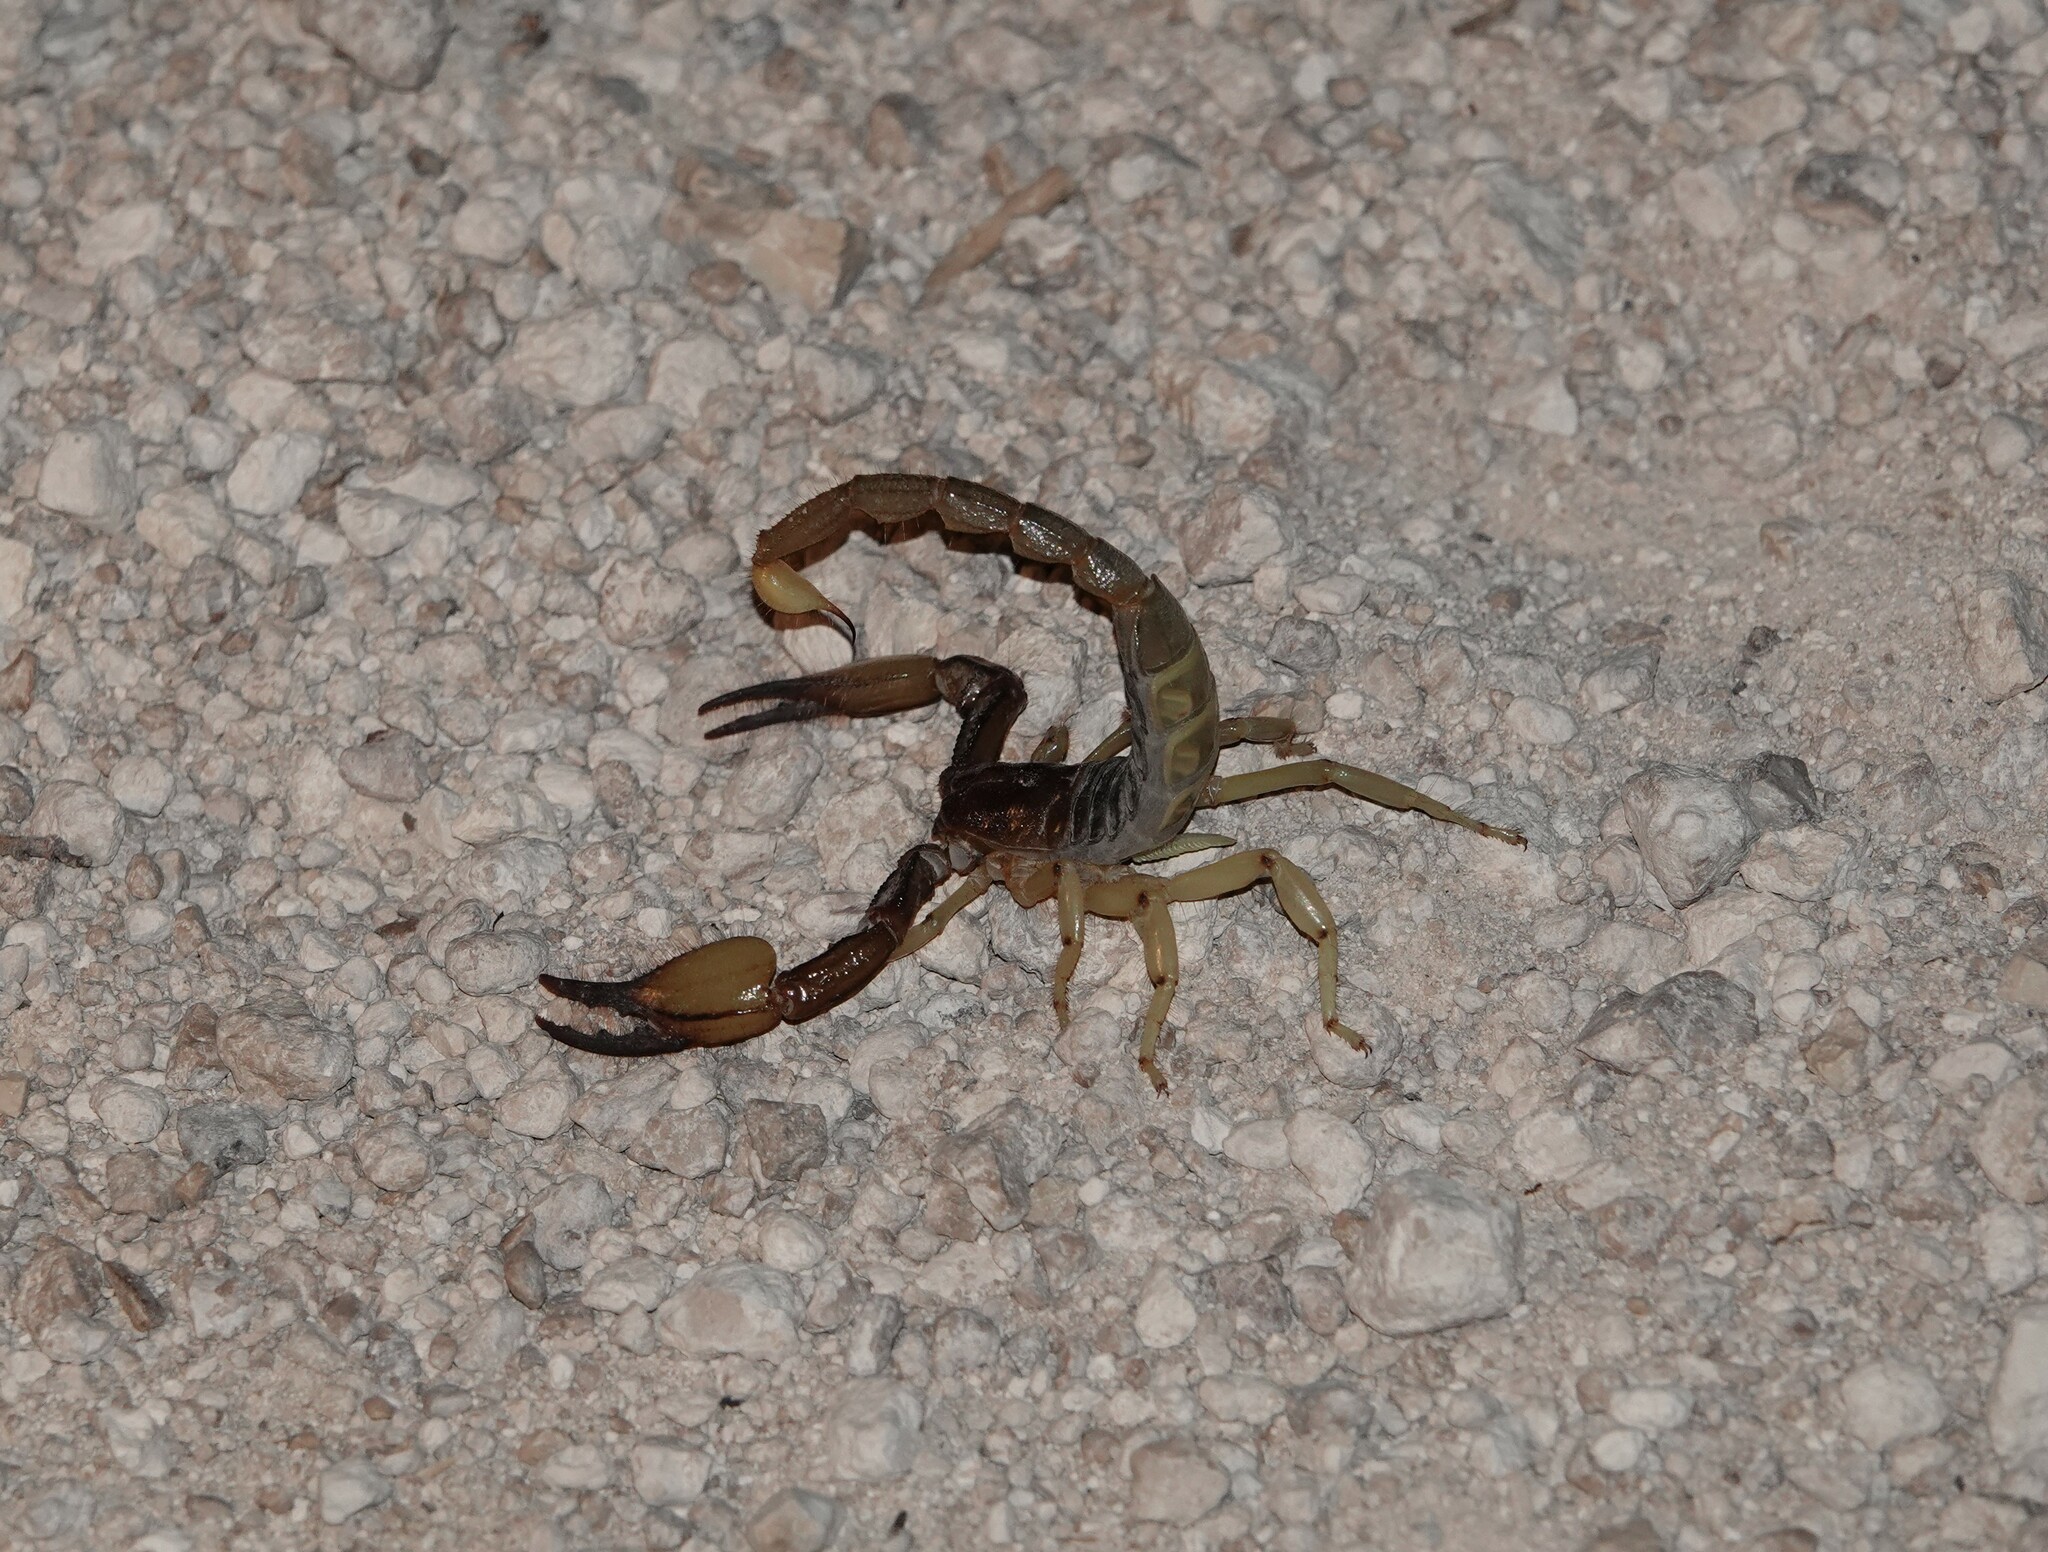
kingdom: Animalia
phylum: Arthropoda
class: Arachnida
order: Scorpiones
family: Scorpionidae
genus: Opistophthalmus
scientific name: Opistophthalmus carinatus
